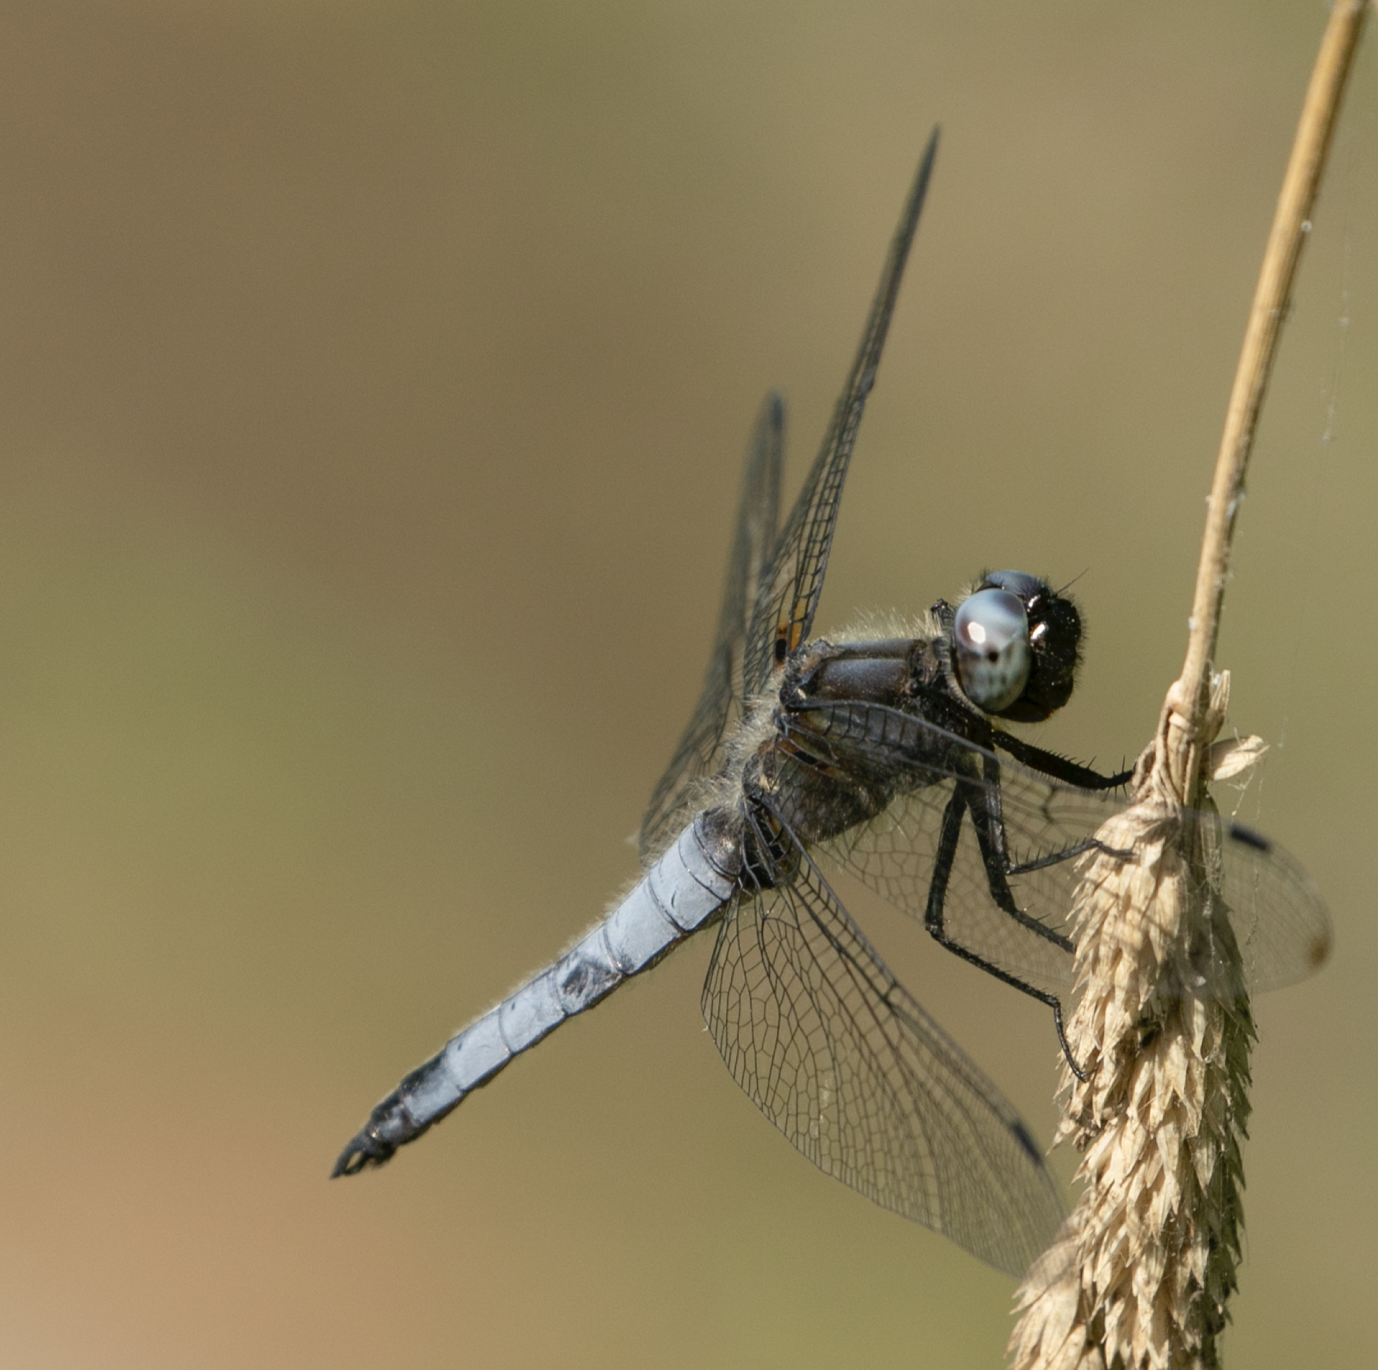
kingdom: Animalia
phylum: Arthropoda
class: Insecta
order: Odonata
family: Libellulidae
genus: Libellula
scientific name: Libellula fulva
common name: Blue chaser
